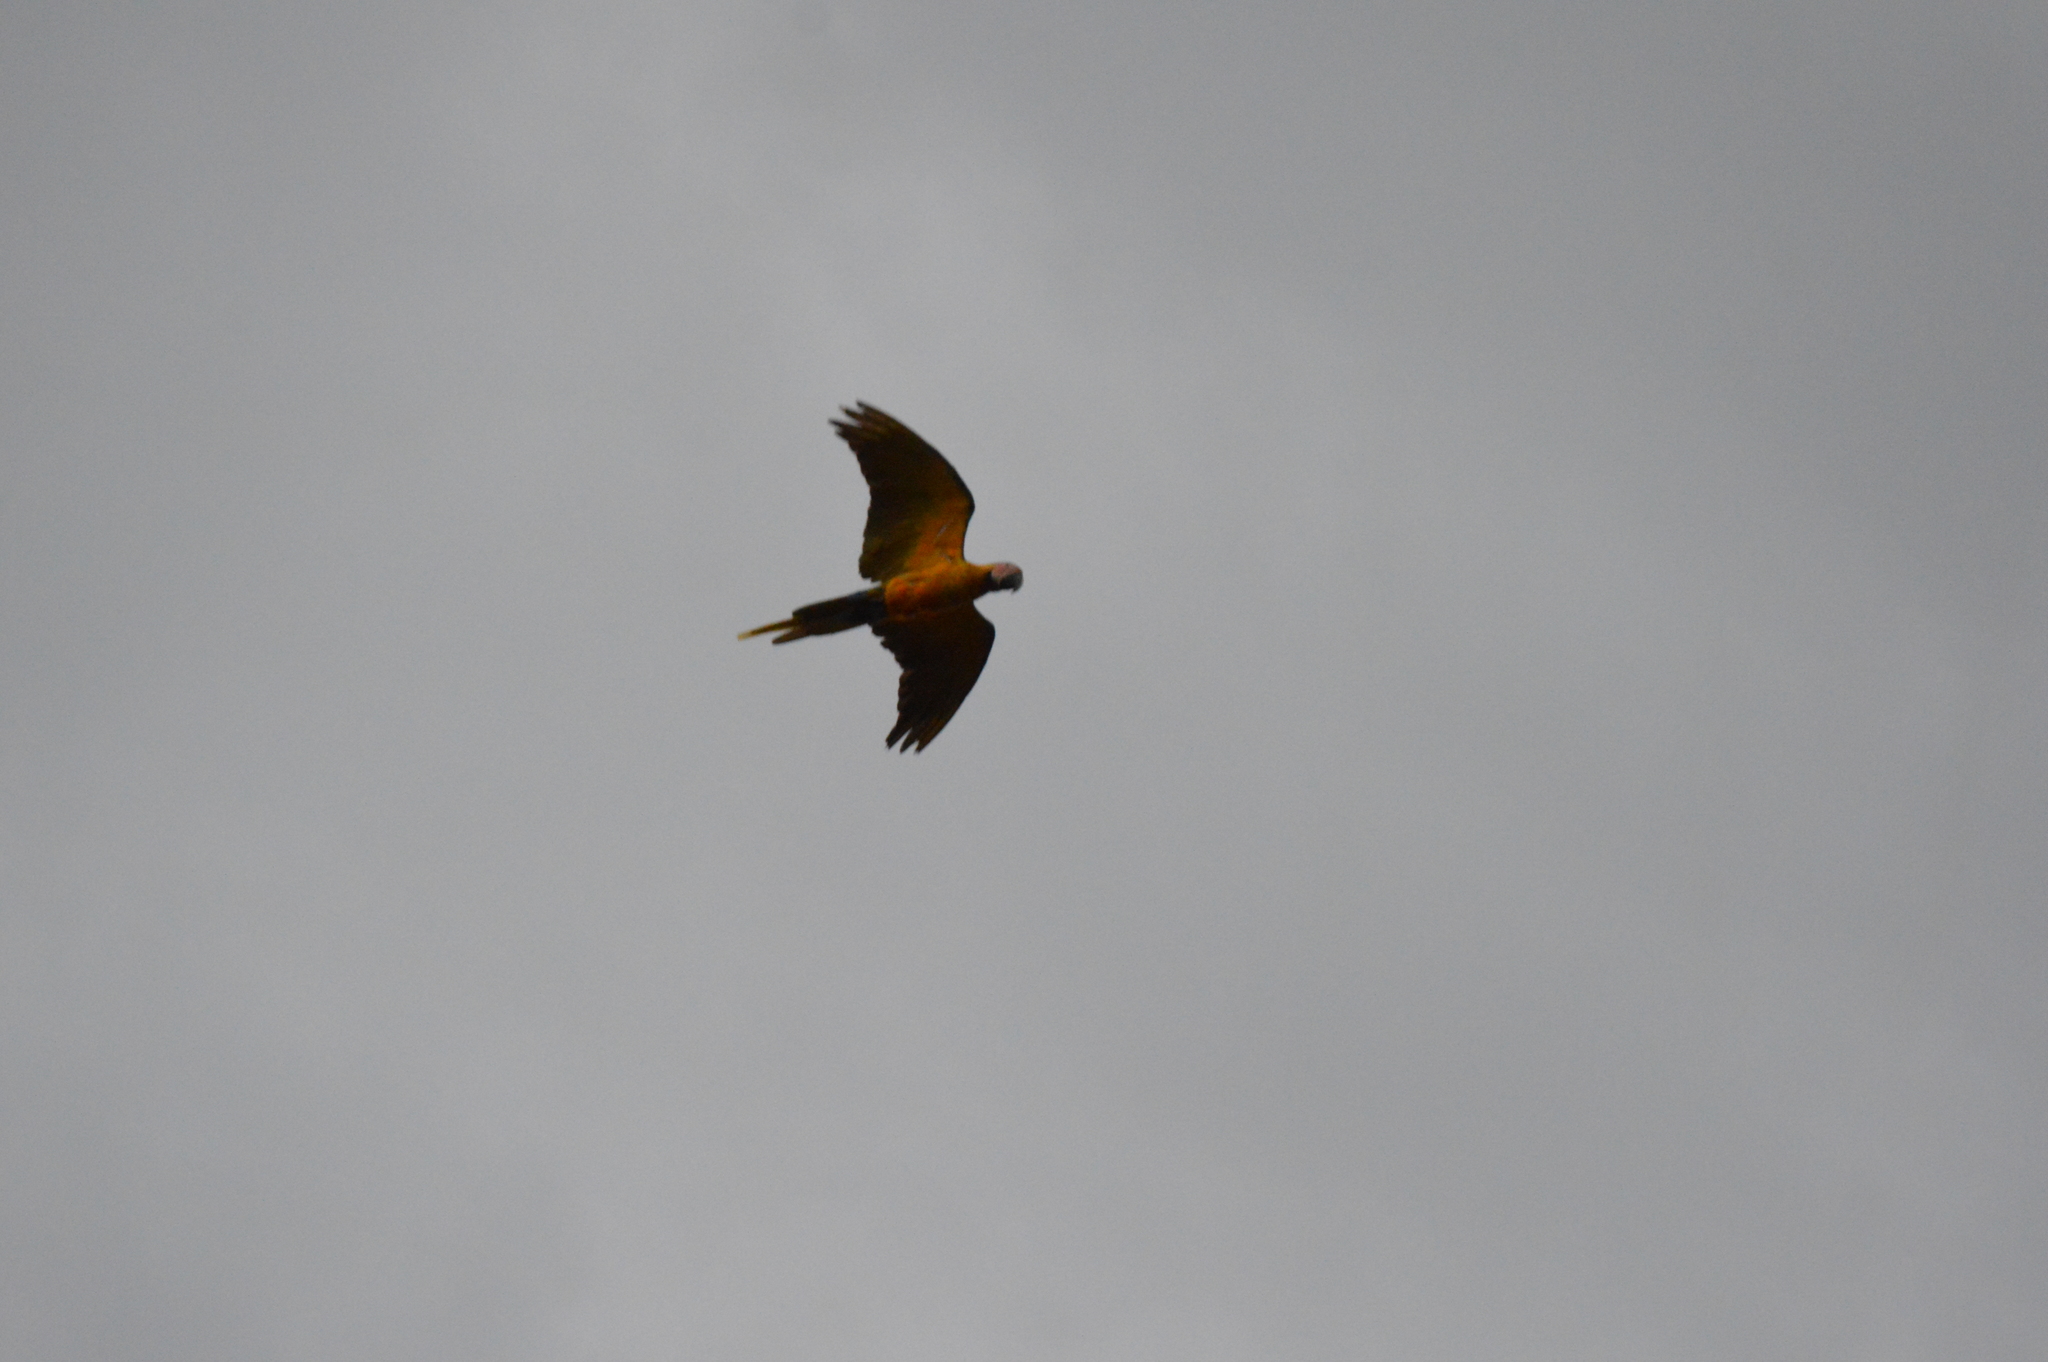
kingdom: Animalia
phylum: Chordata
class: Aves
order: Psittaciformes
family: Psittacidae
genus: Ara
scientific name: Ara ararauna
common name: Blue-and-yellow macaw
